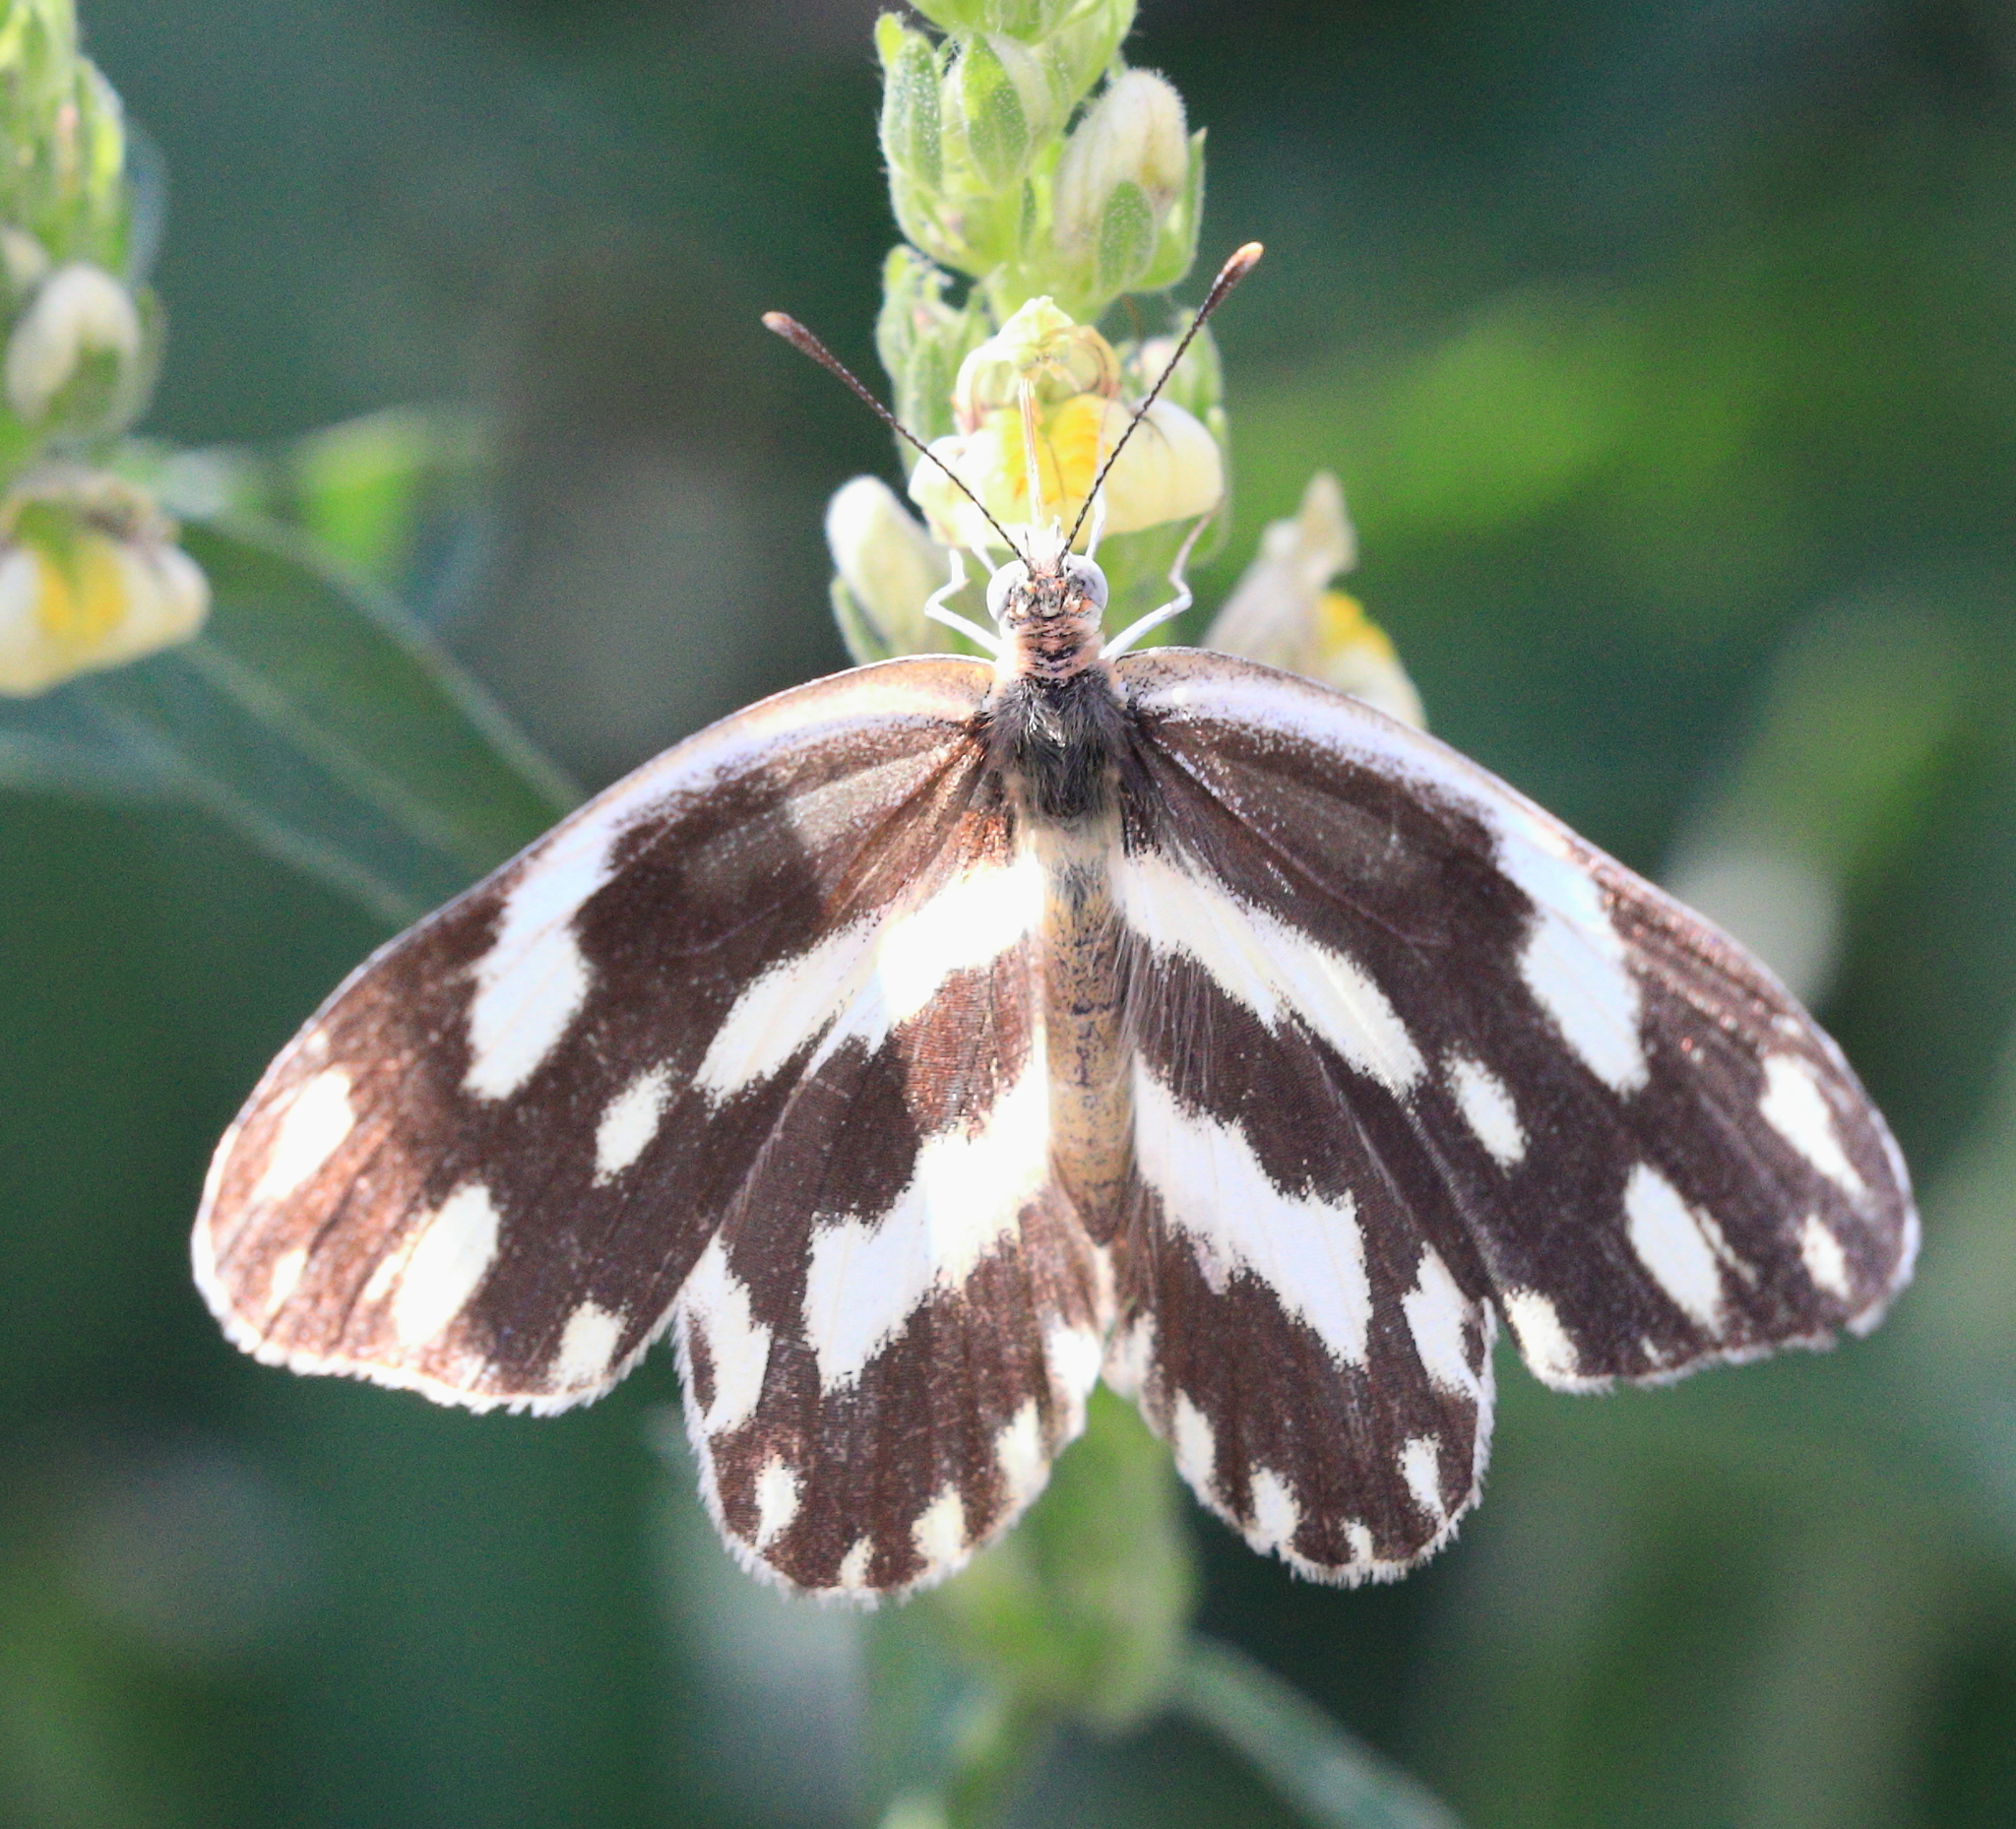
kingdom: Animalia
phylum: Arthropoda
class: Insecta
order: Lepidoptera
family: Pieridae
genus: Pinacopteryx
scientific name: Pinacopteryx eriphia
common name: Zebra white
